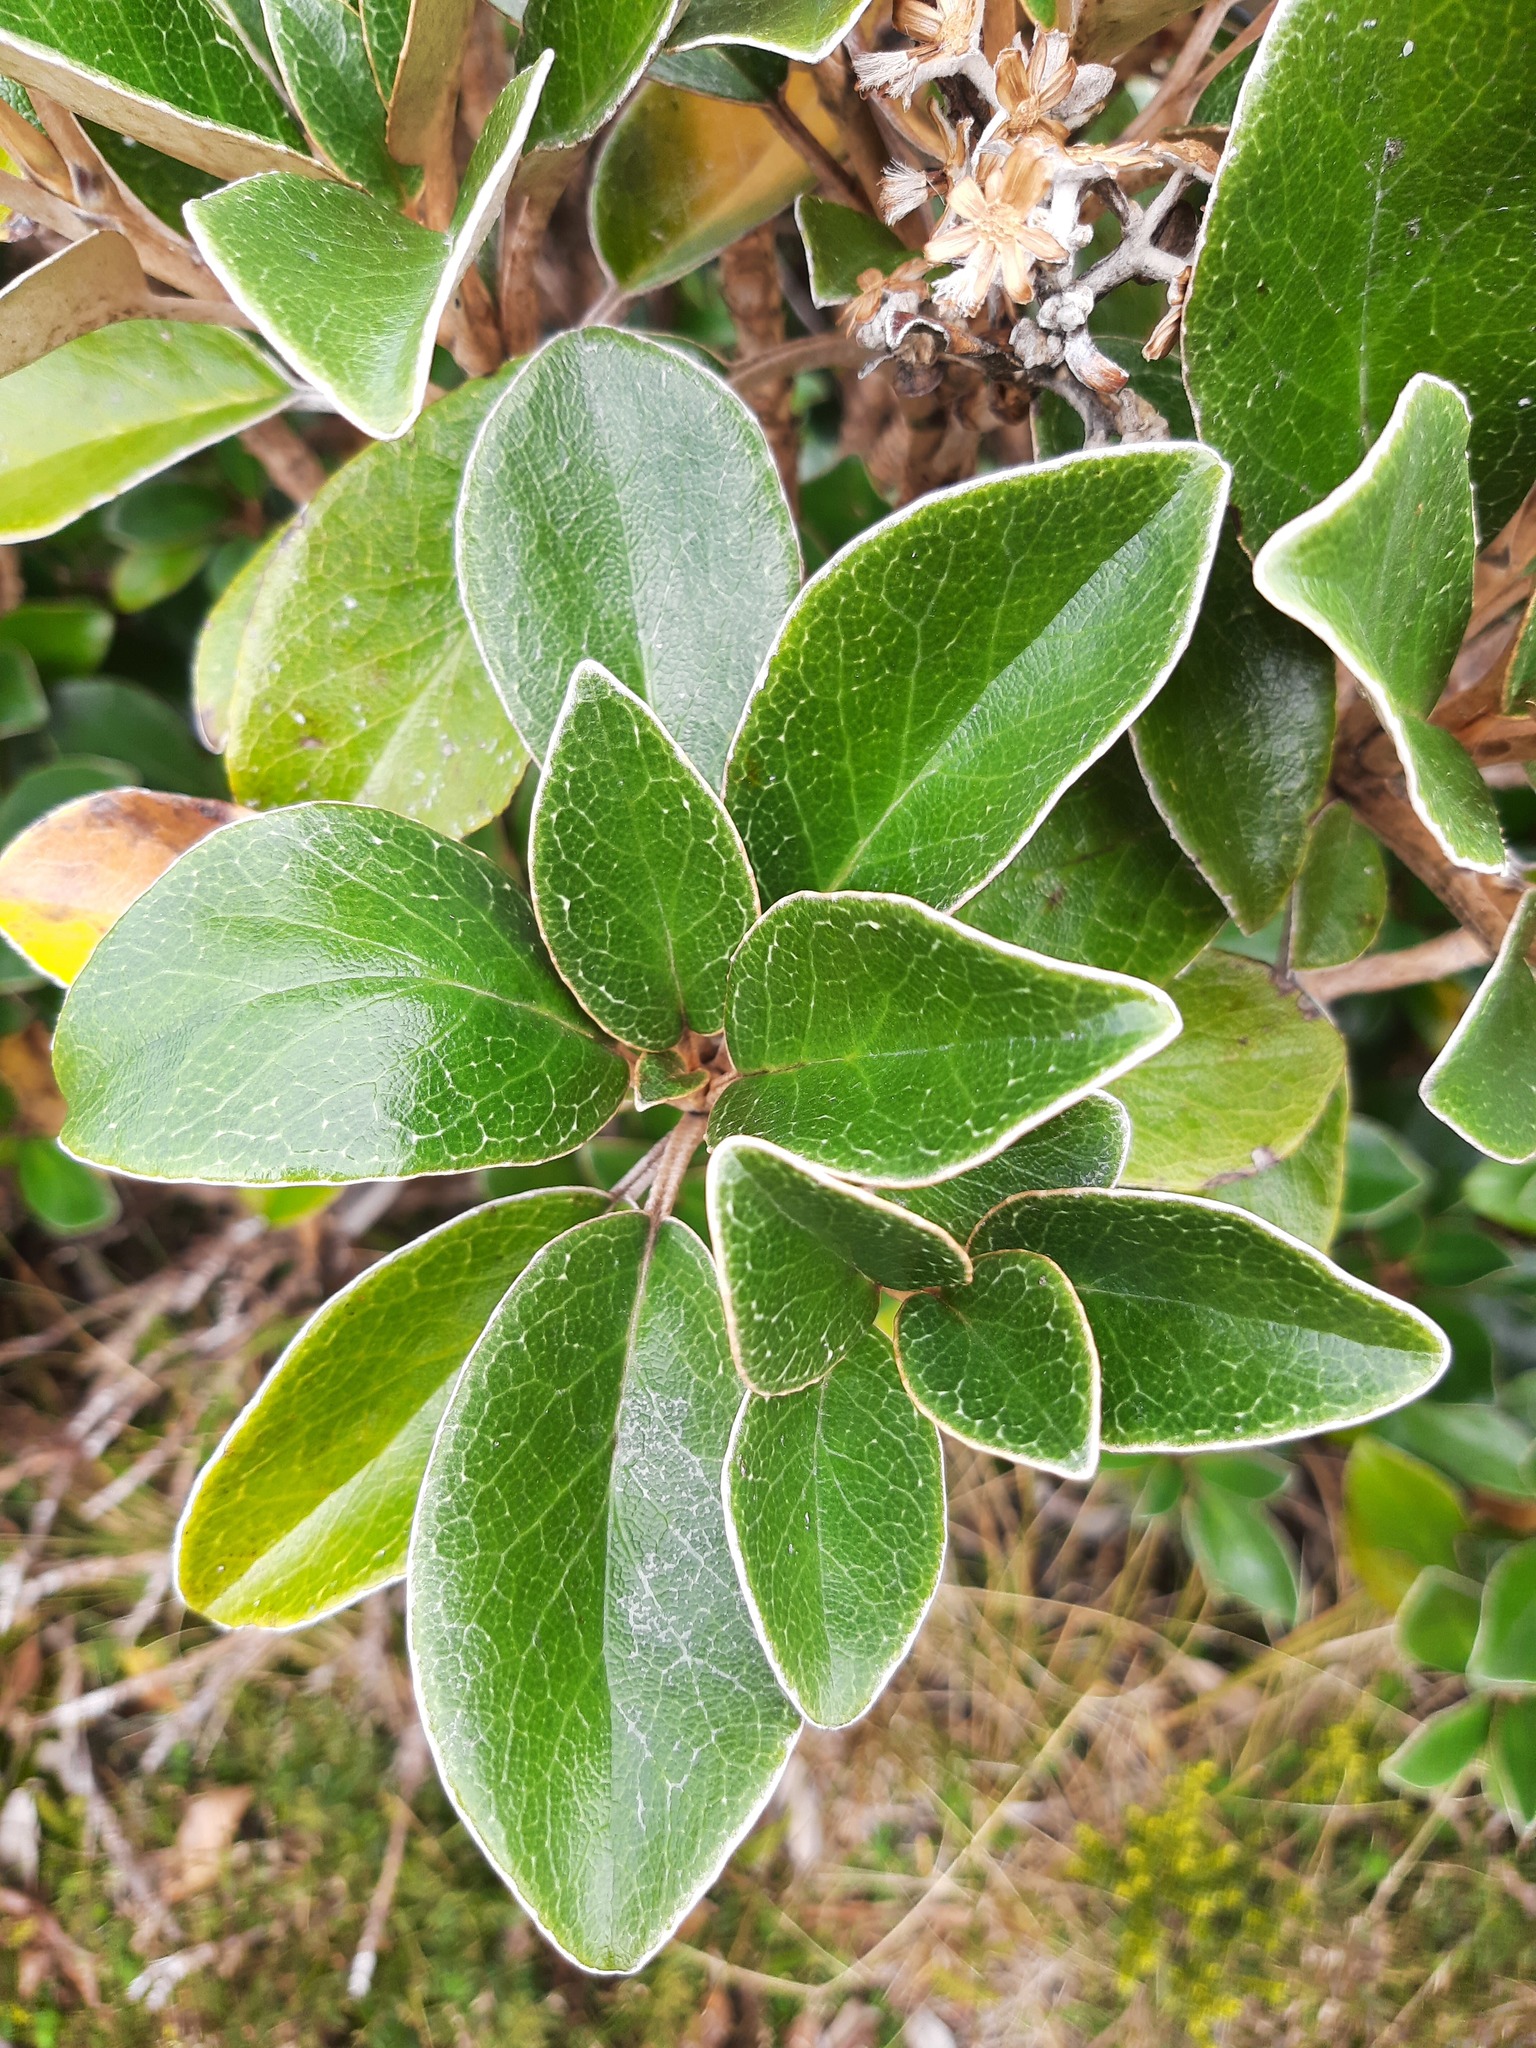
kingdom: Plantae
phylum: Tracheophyta
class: Magnoliopsida
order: Asterales
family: Asteraceae
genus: Brachyglottis
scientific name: Brachyglottis elaeagnifolia
